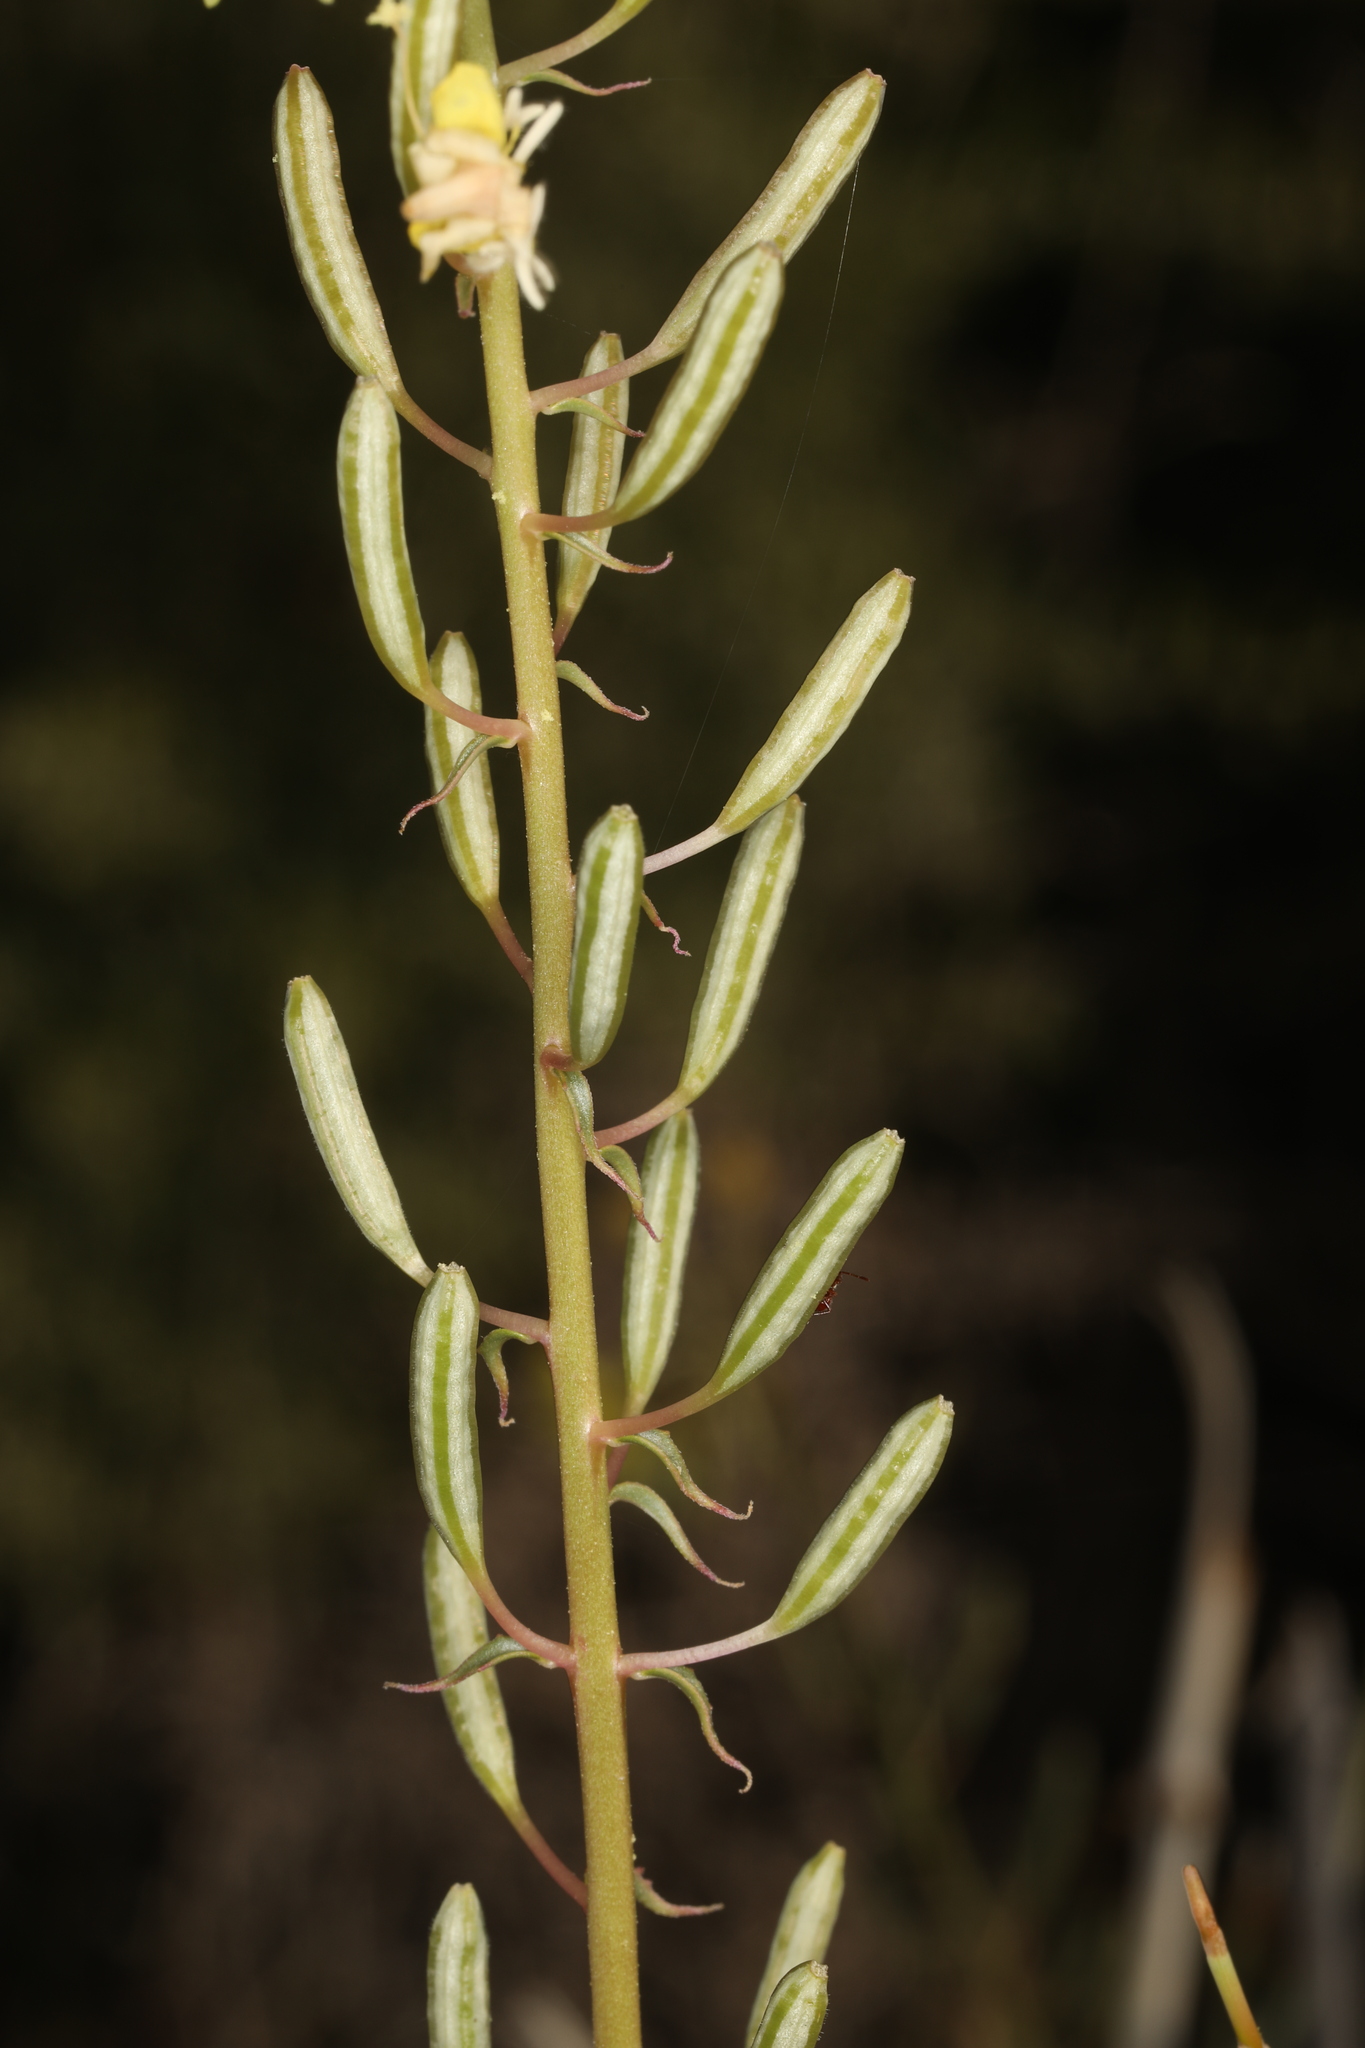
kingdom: Plantae
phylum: Tracheophyta
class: Magnoliopsida
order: Myrtales
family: Onagraceae
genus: Chylismia
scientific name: Chylismia claviformis
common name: Browneyes
